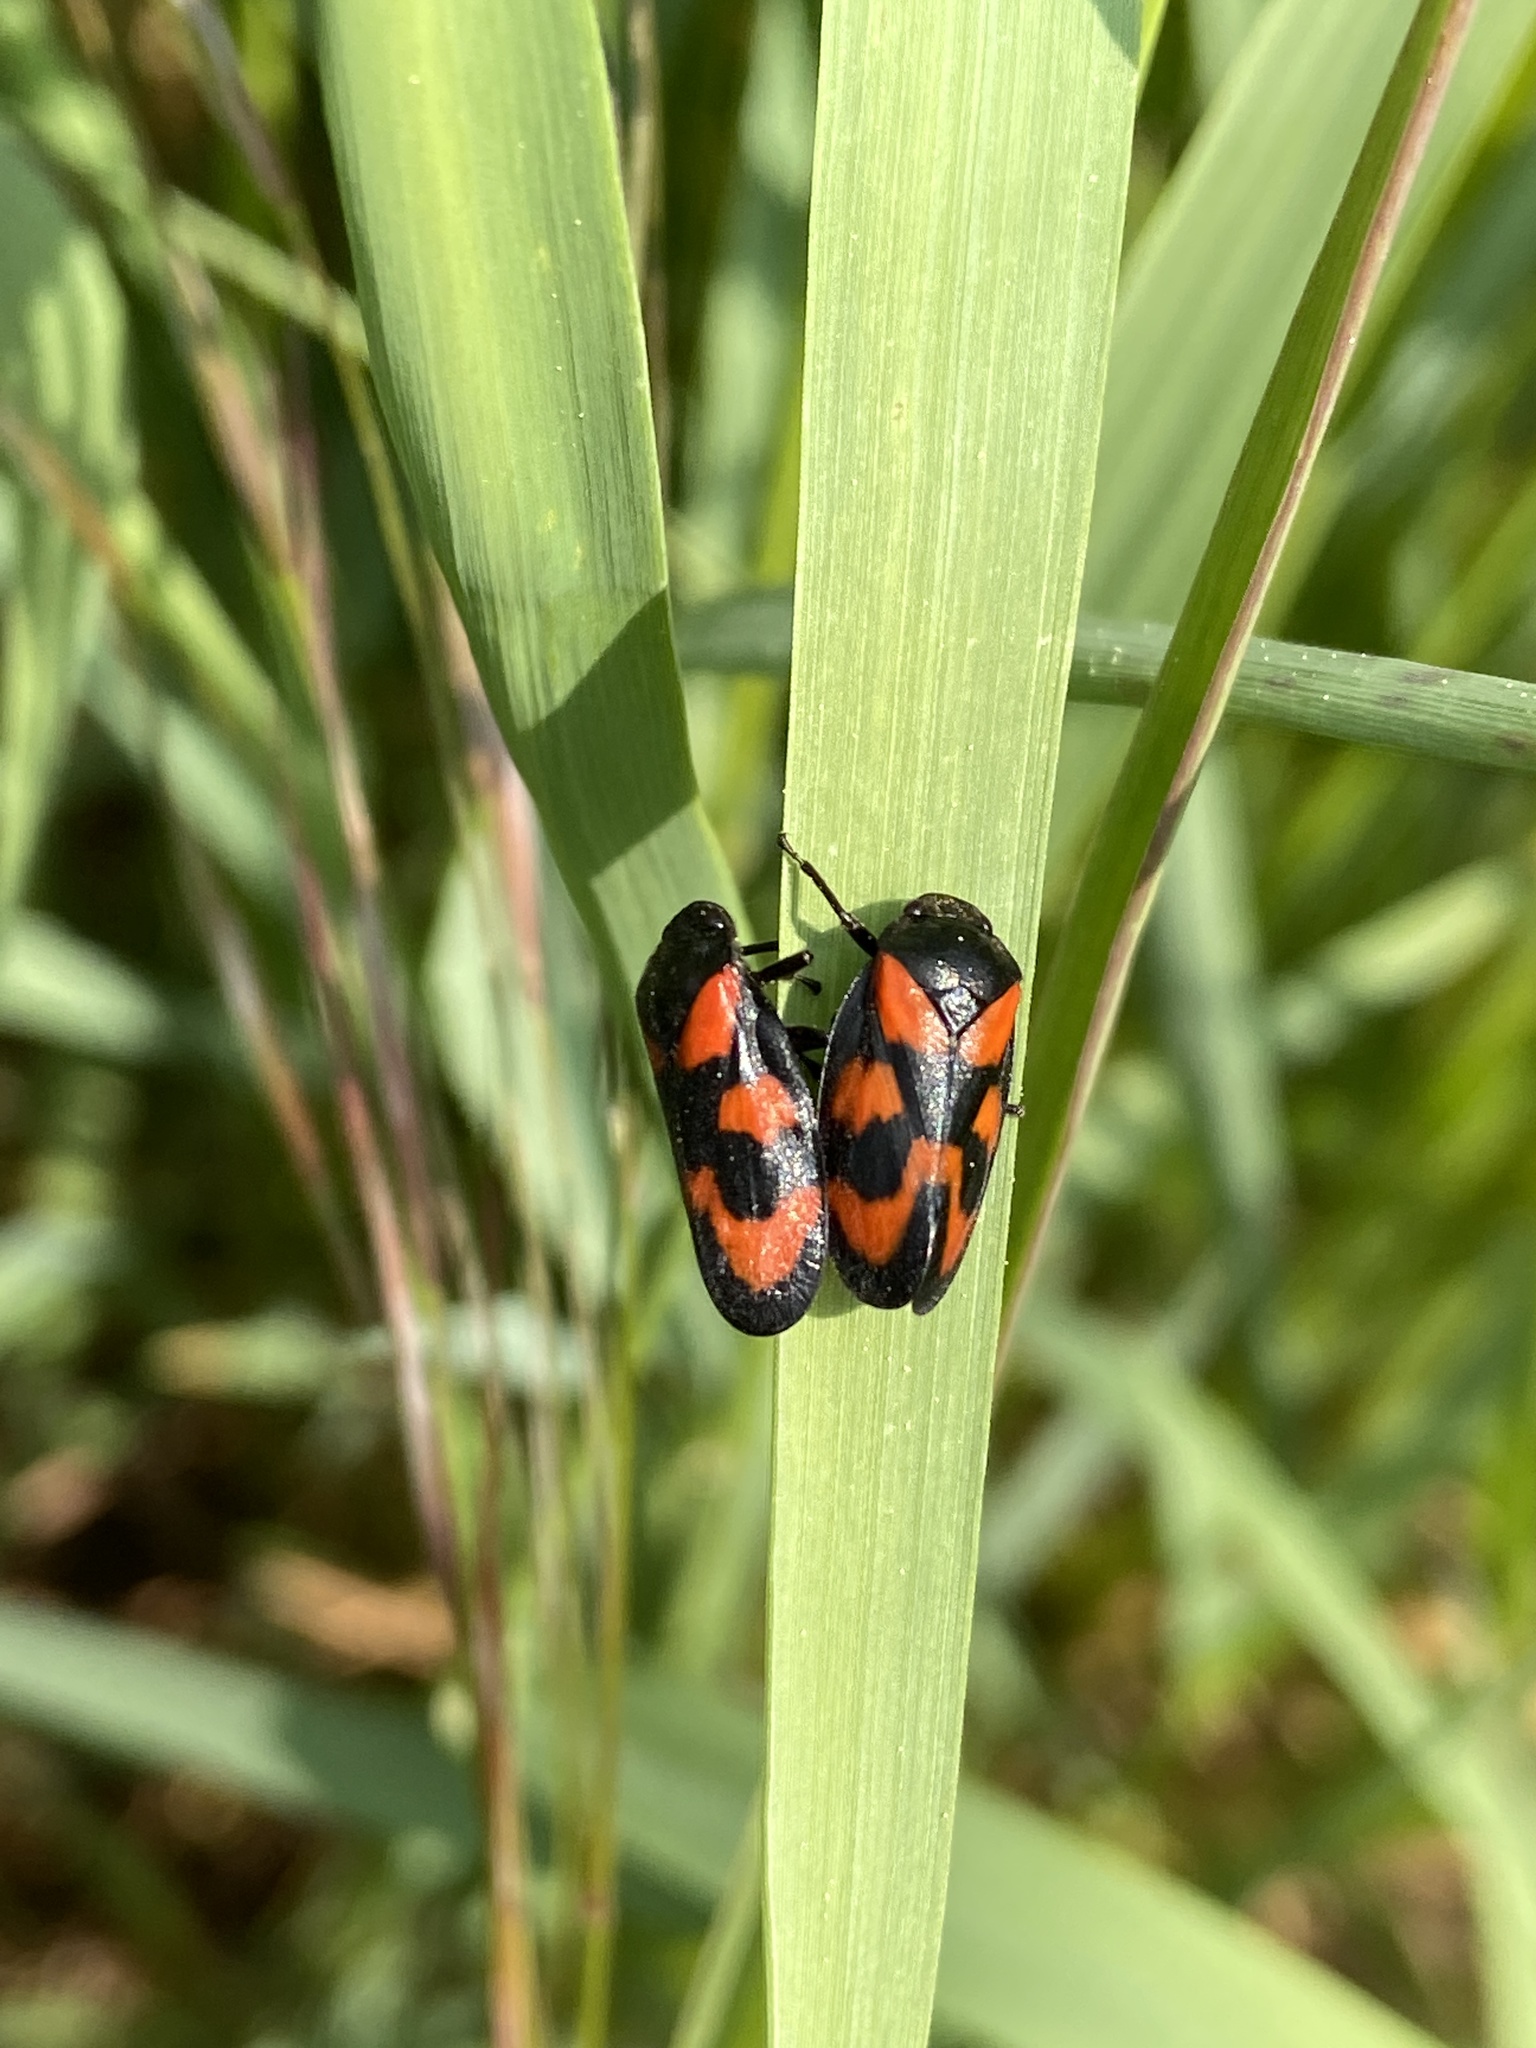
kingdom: Animalia
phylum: Arthropoda
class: Insecta
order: Hemiptera
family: Cercopidae
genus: Cercopis
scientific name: Cercopis vulnerata
